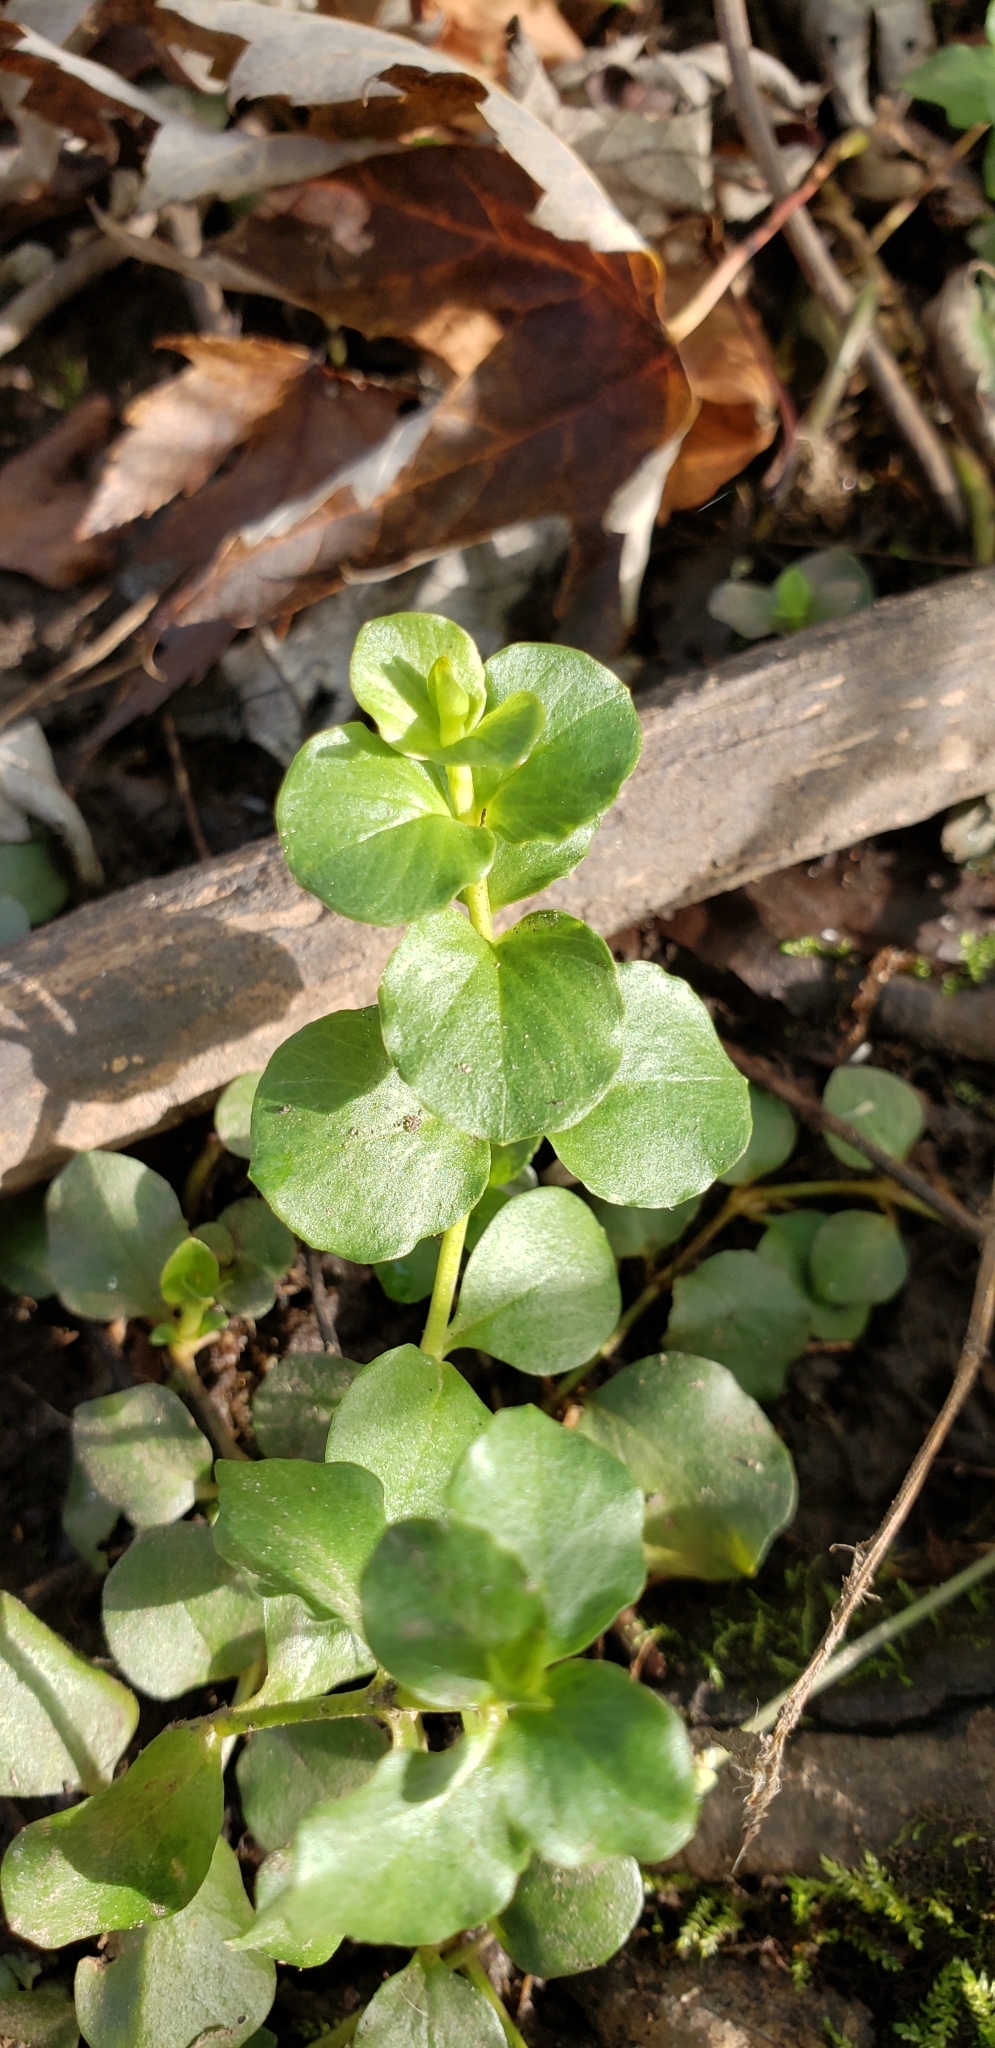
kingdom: Plantae
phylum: Tracheophyta
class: Magnoliopsida
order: Ericales
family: Primulaceae
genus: Lysimachia
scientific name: Lysimachia nummularia
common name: Moneywort
